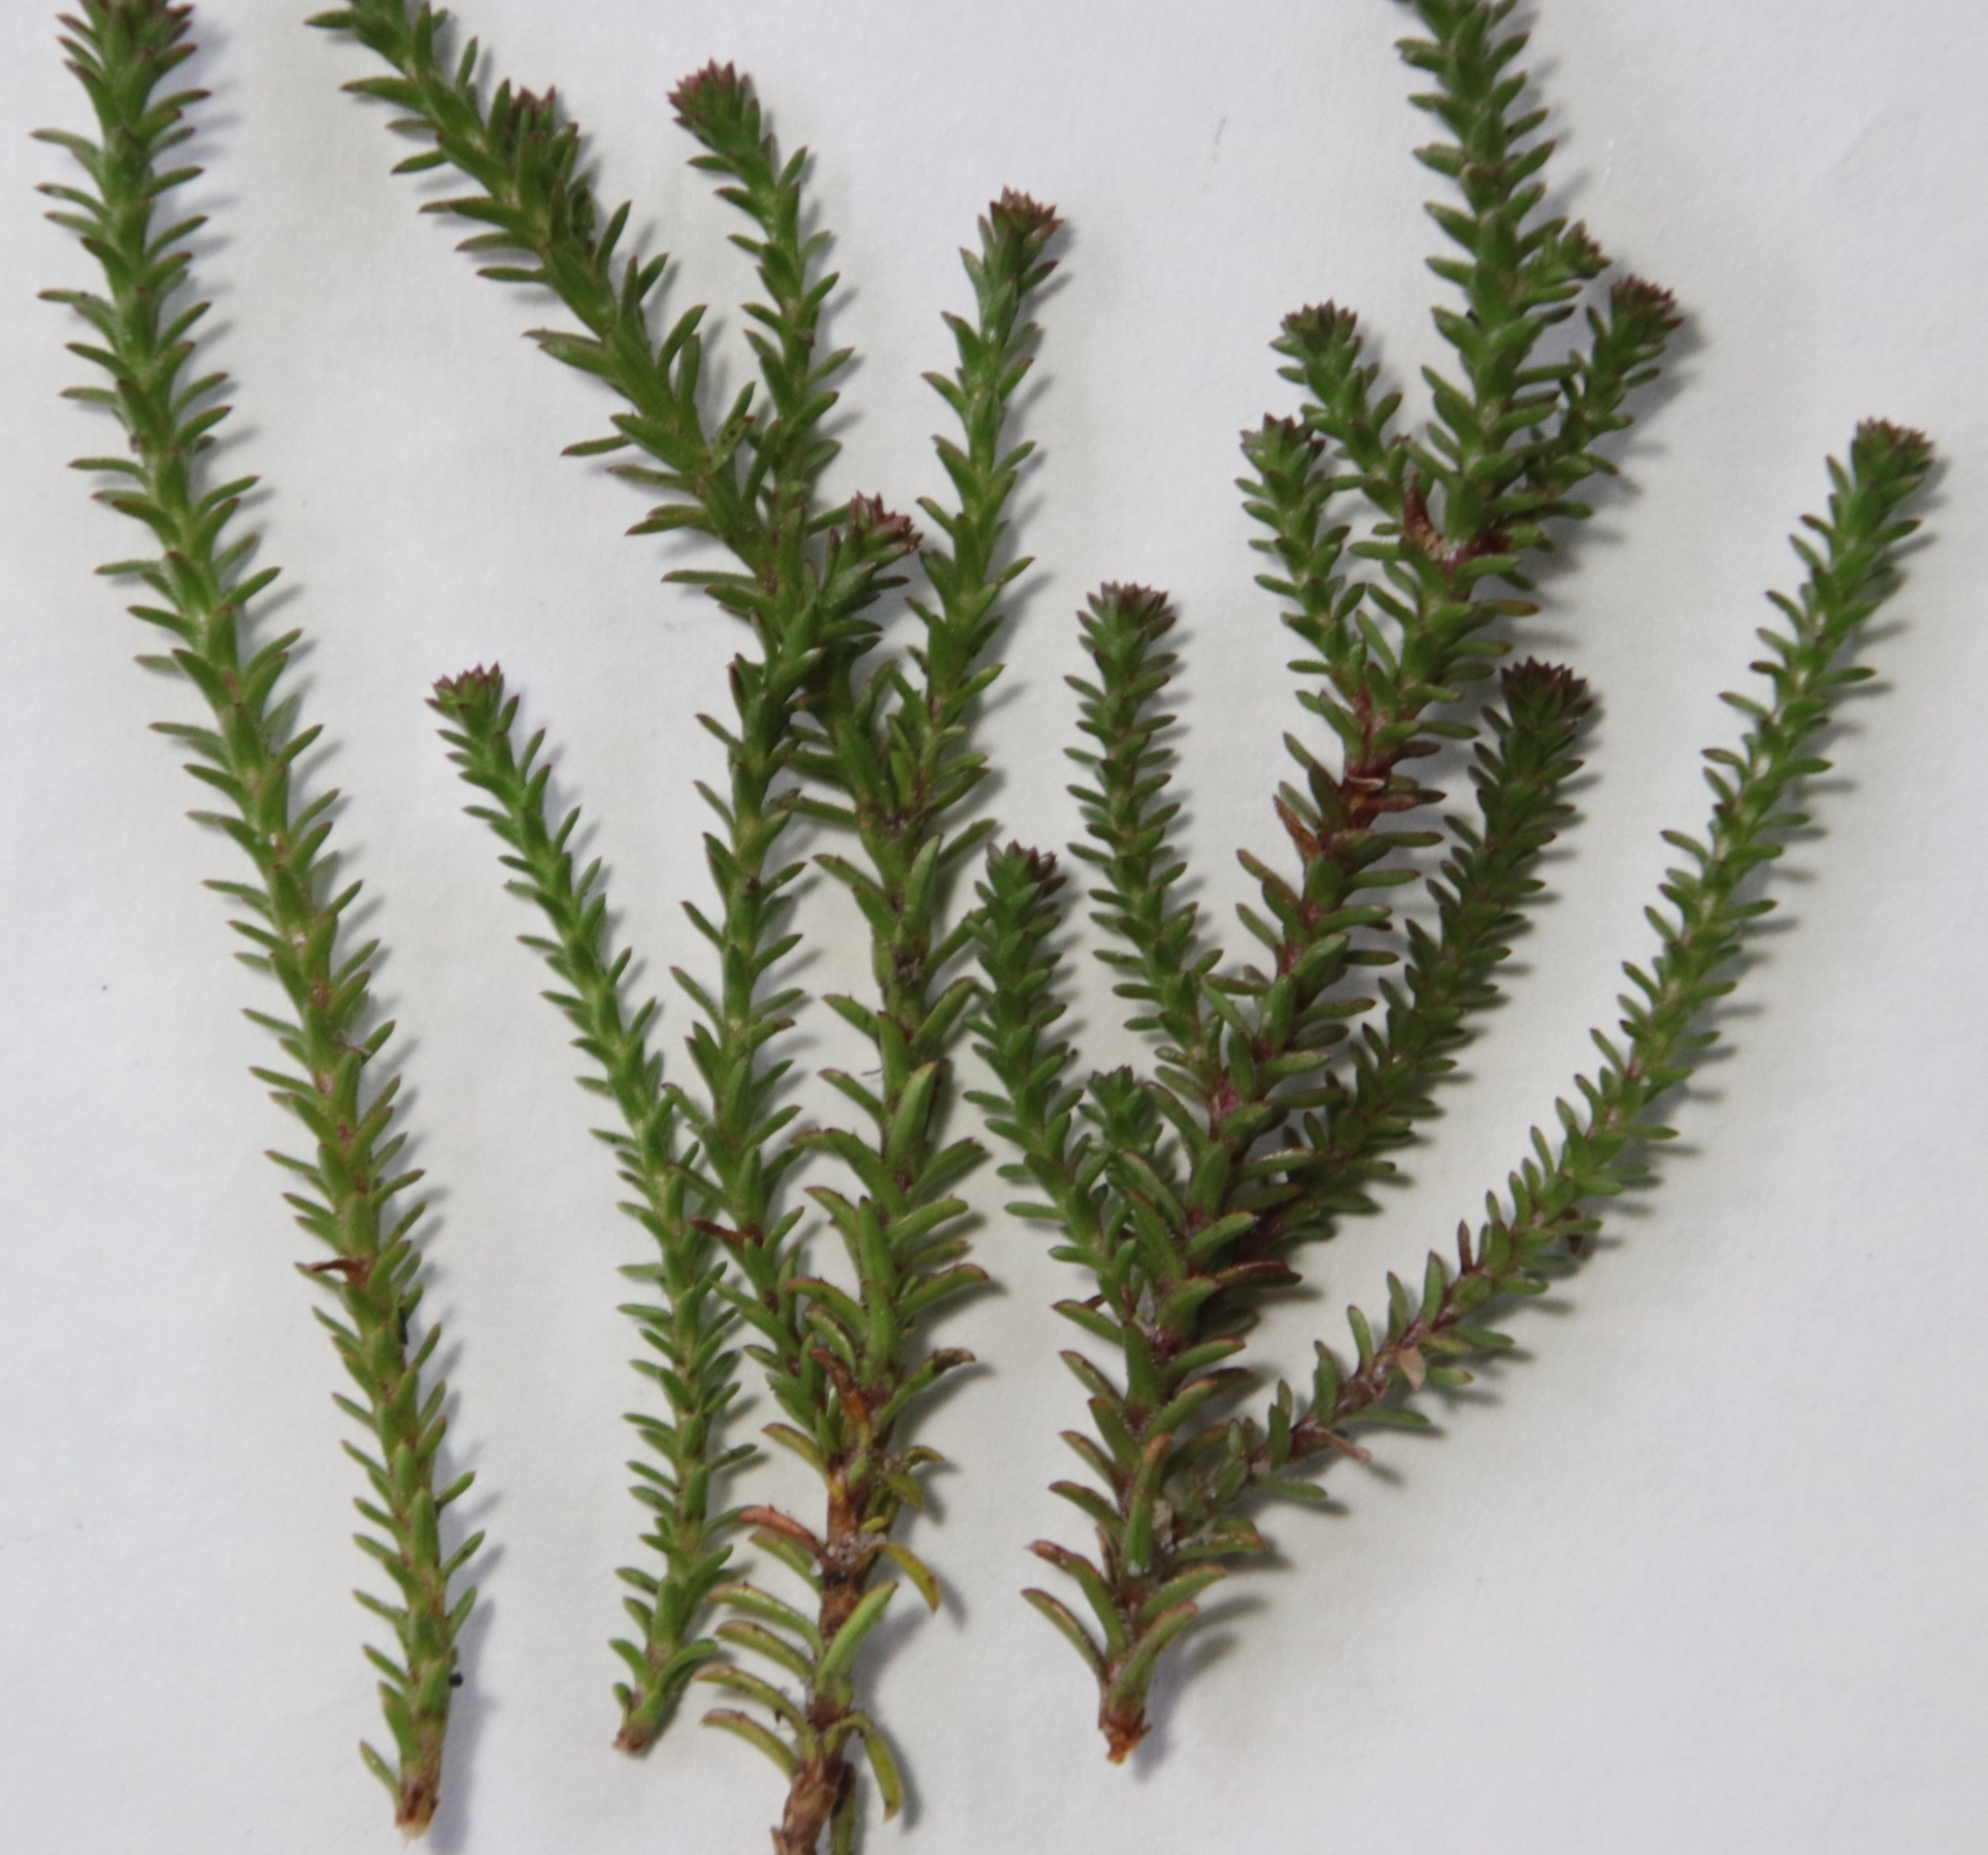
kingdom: Plantae
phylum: Tracheophyta
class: Magnoliopsida
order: Asterales
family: Campanulaceae
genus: Roella
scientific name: Roella recurvata
